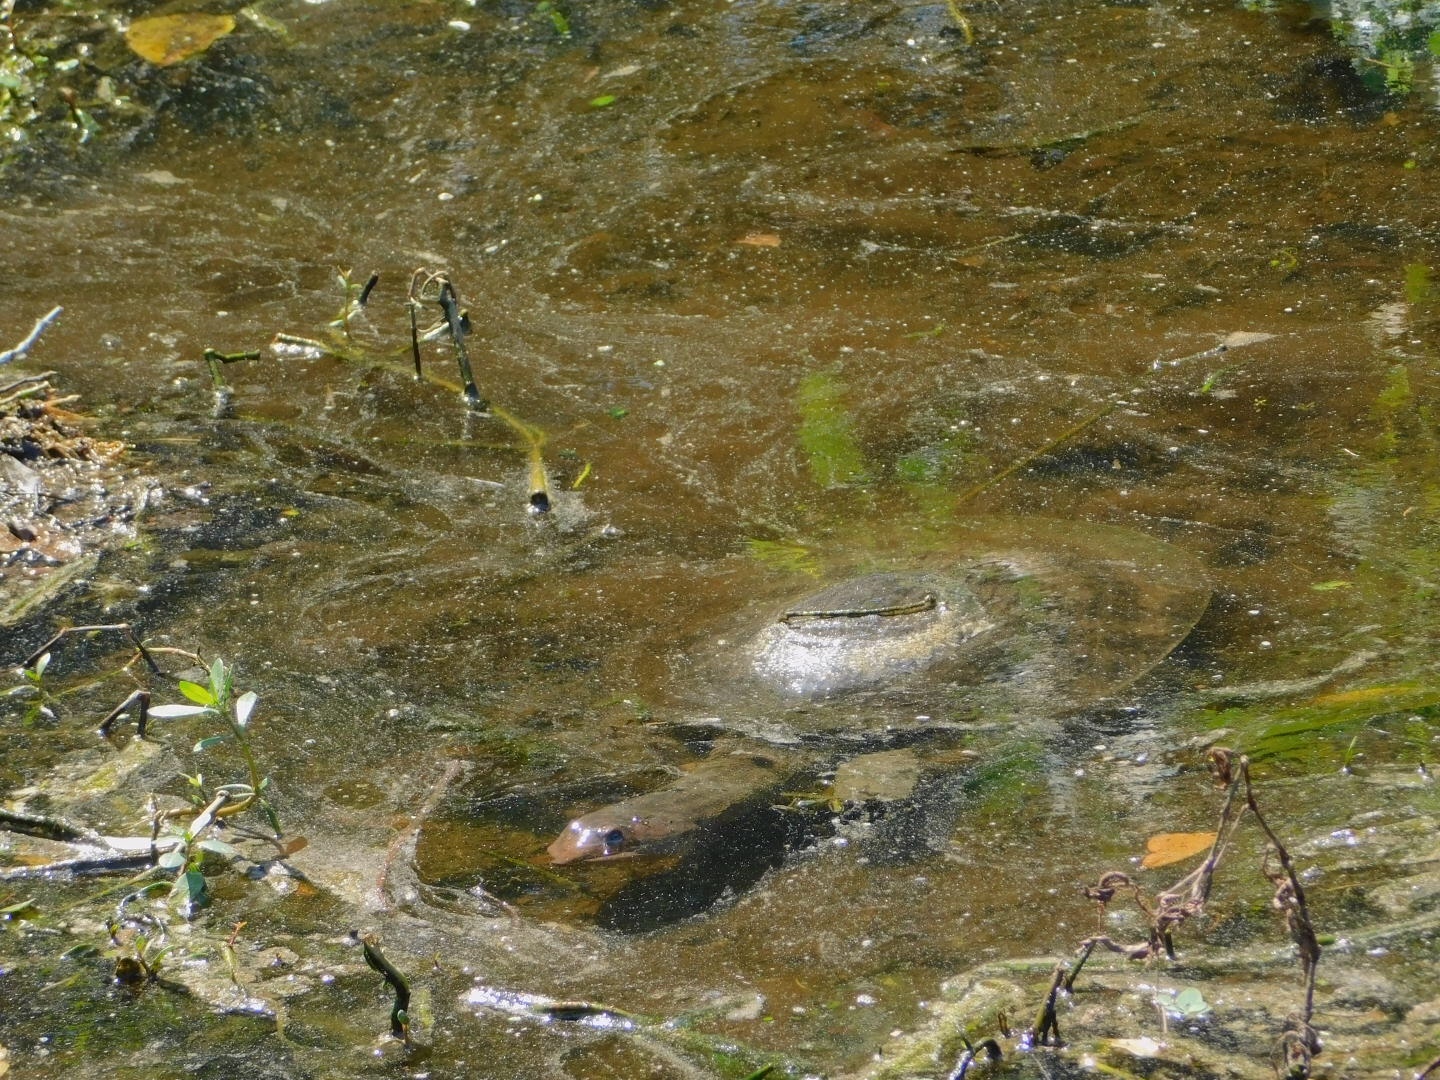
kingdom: Animalia
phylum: Chordata
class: Testudines
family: Trionychidae
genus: Apalone
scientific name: Apalone ferox
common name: Florida softshell turtle
